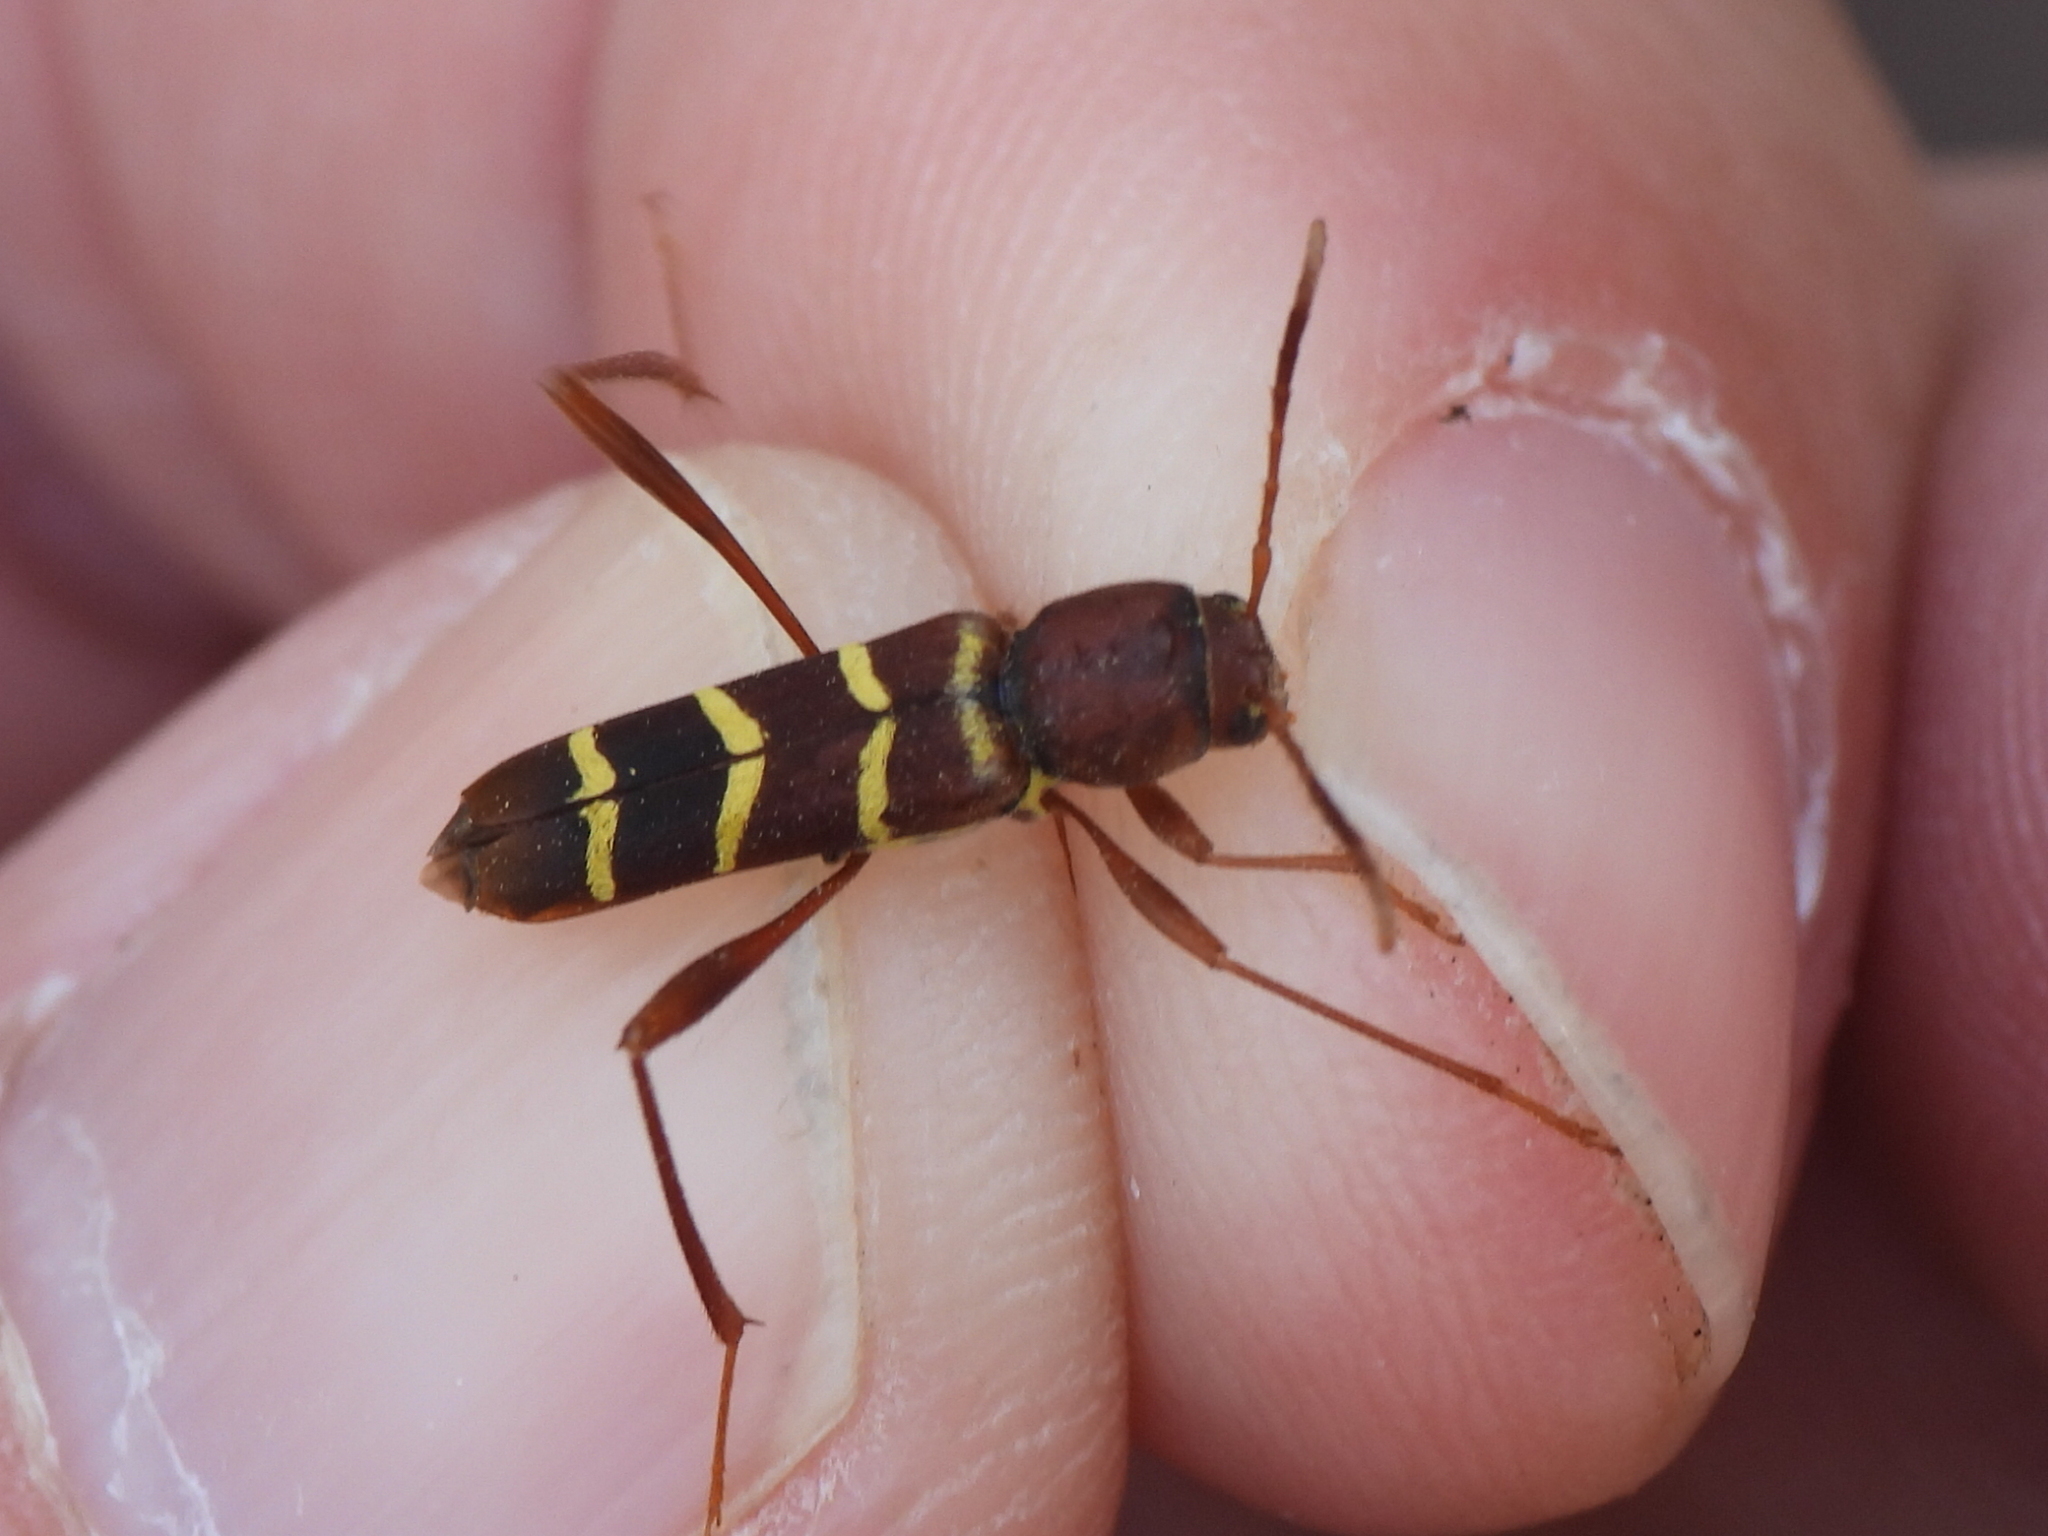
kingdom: Animalia
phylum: Arthropoda
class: Insecta
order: Coleoptera
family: Cerambycidae
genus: Neoclytus
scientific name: Neoclytus acuminatus
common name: Read-headed ash borer
